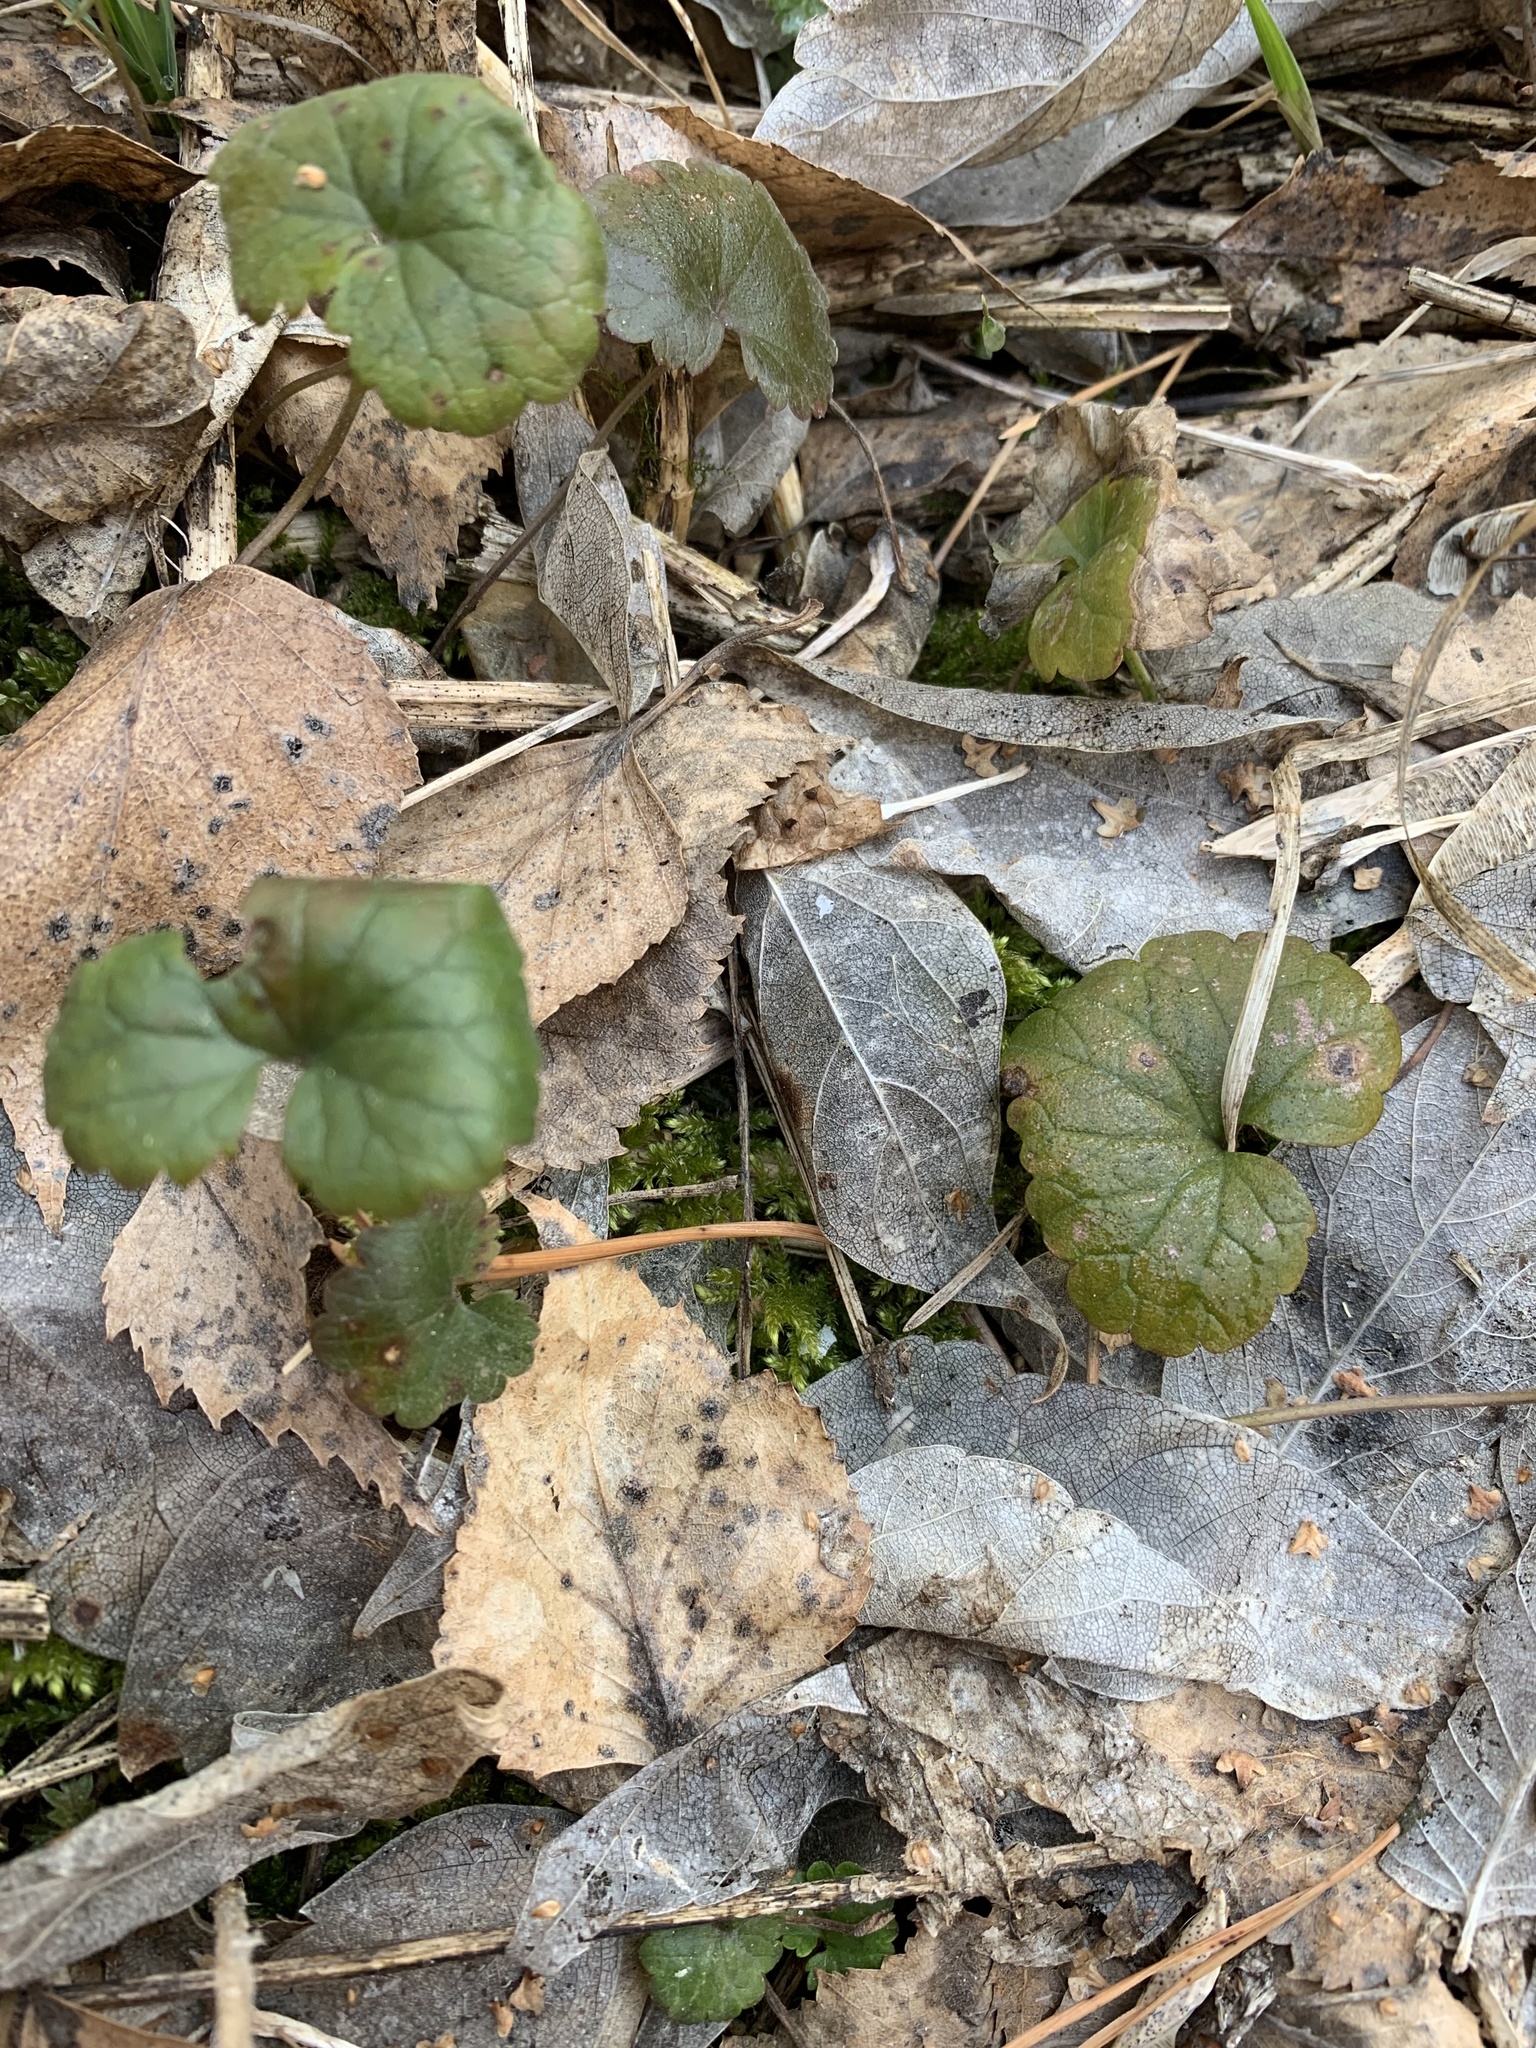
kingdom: Plantae
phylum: Tracheophyta
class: Magnoliopsida
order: Lamiales
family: Lamiaceae
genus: Glechoma
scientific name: Glechoma hederacea
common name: Ground ivy
